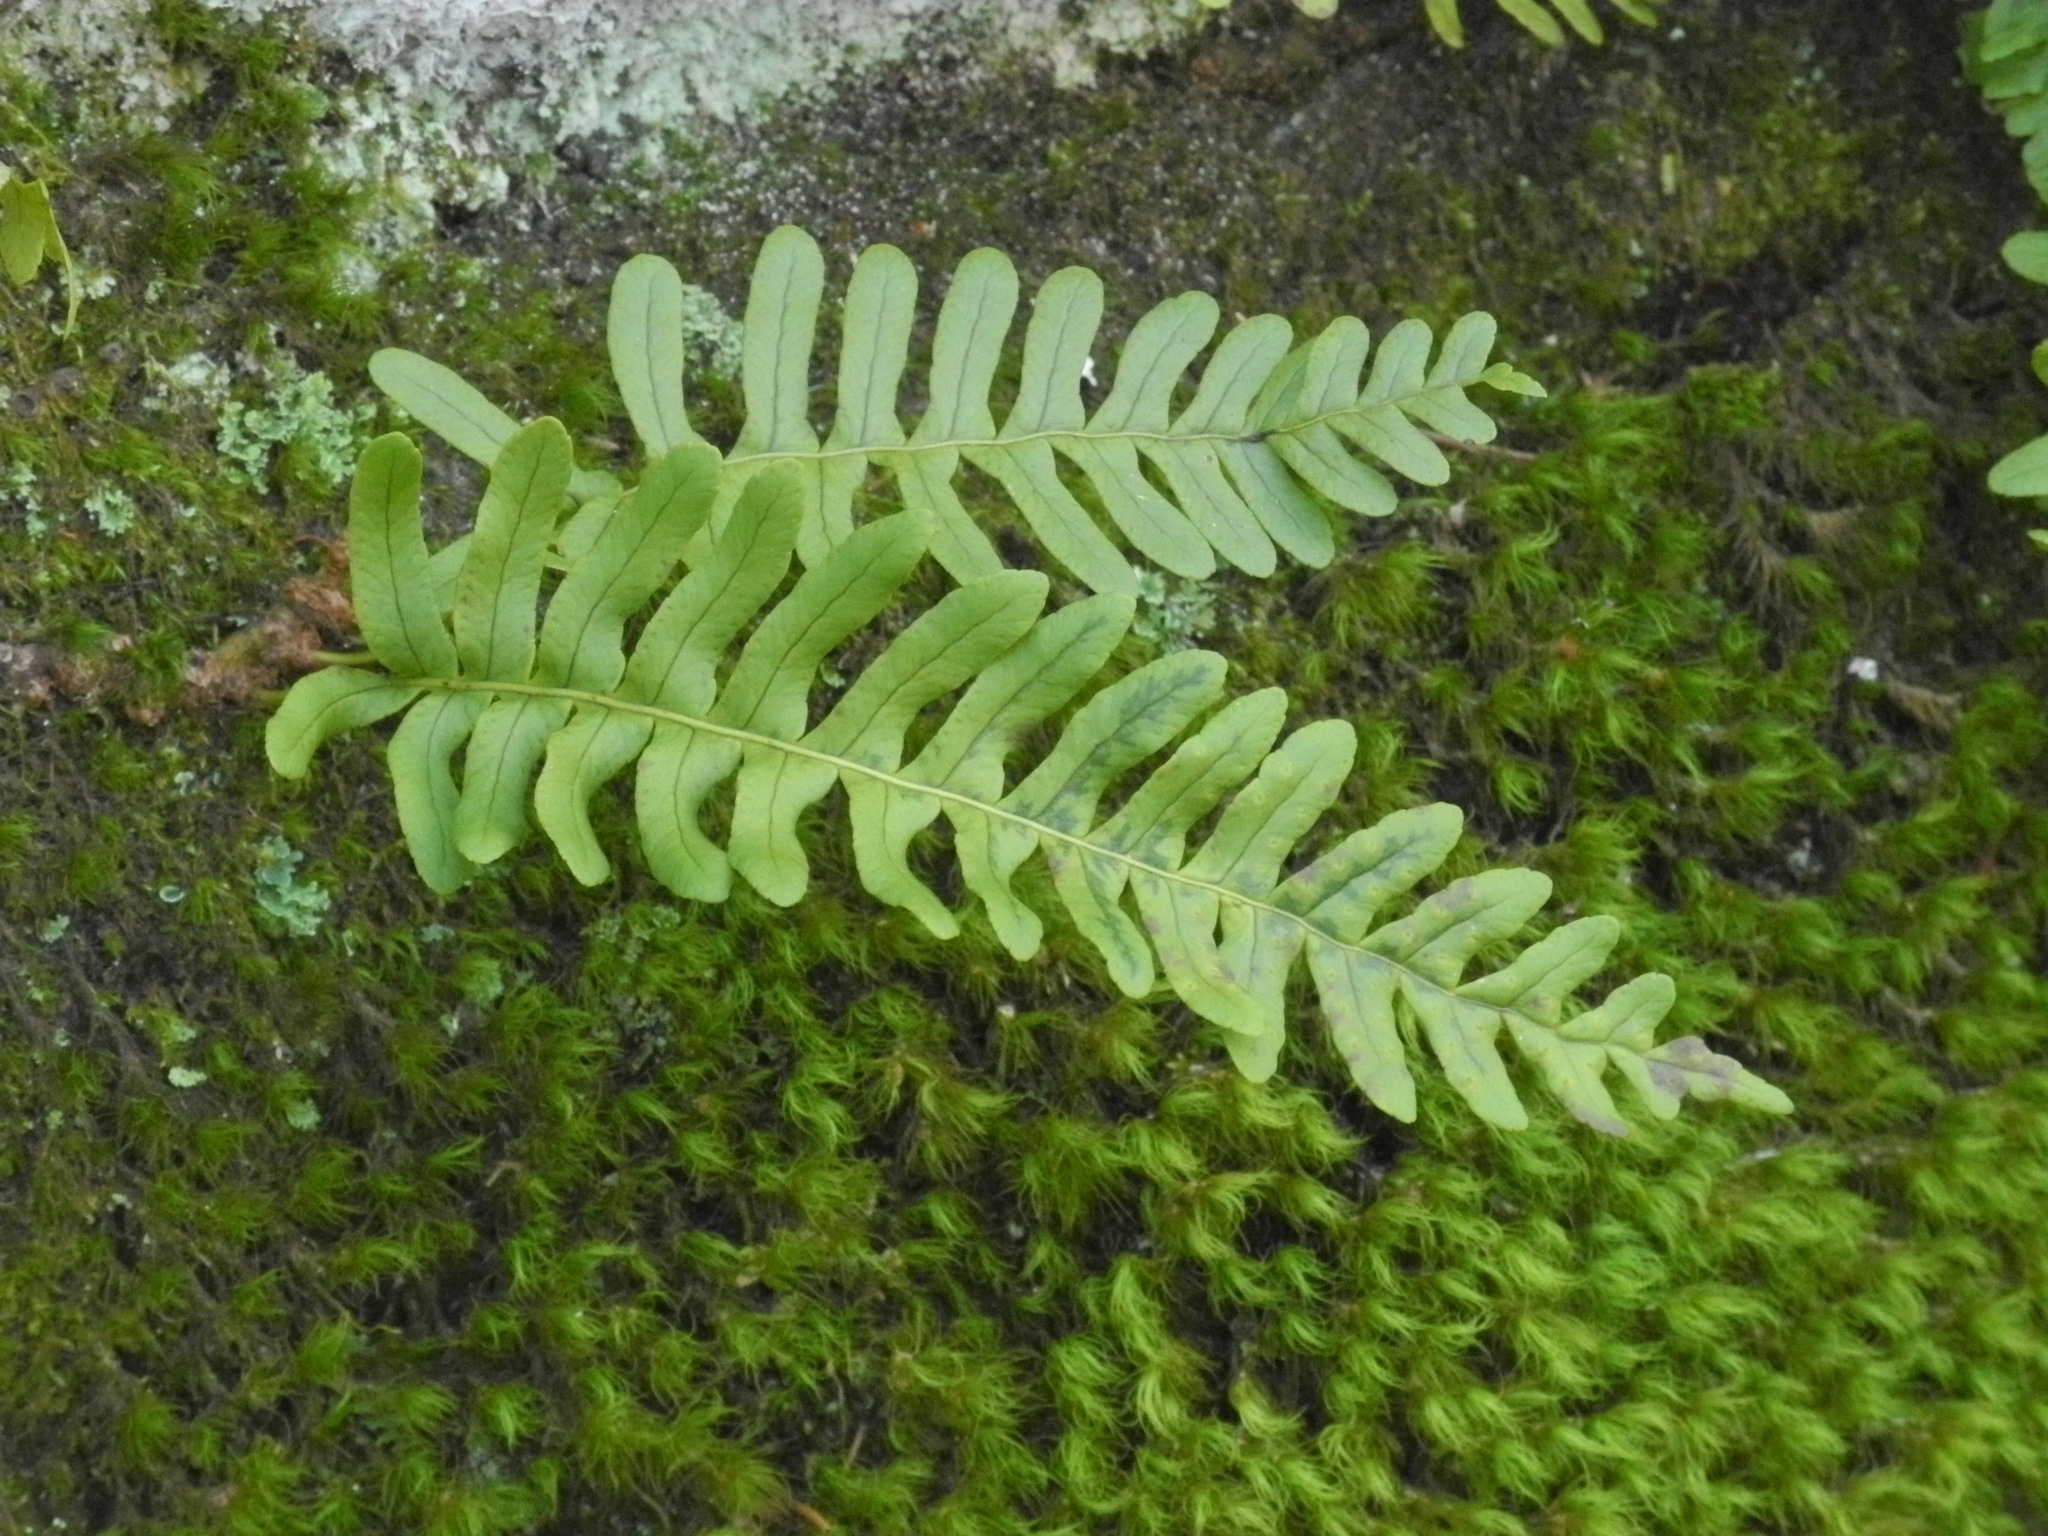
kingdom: Plantae
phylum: Tracheophyta
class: Polypodiopsida
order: Polypodiales
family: Polypodiaceae
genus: Polypodium
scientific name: Polypodium virginianum
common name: American wall fern
